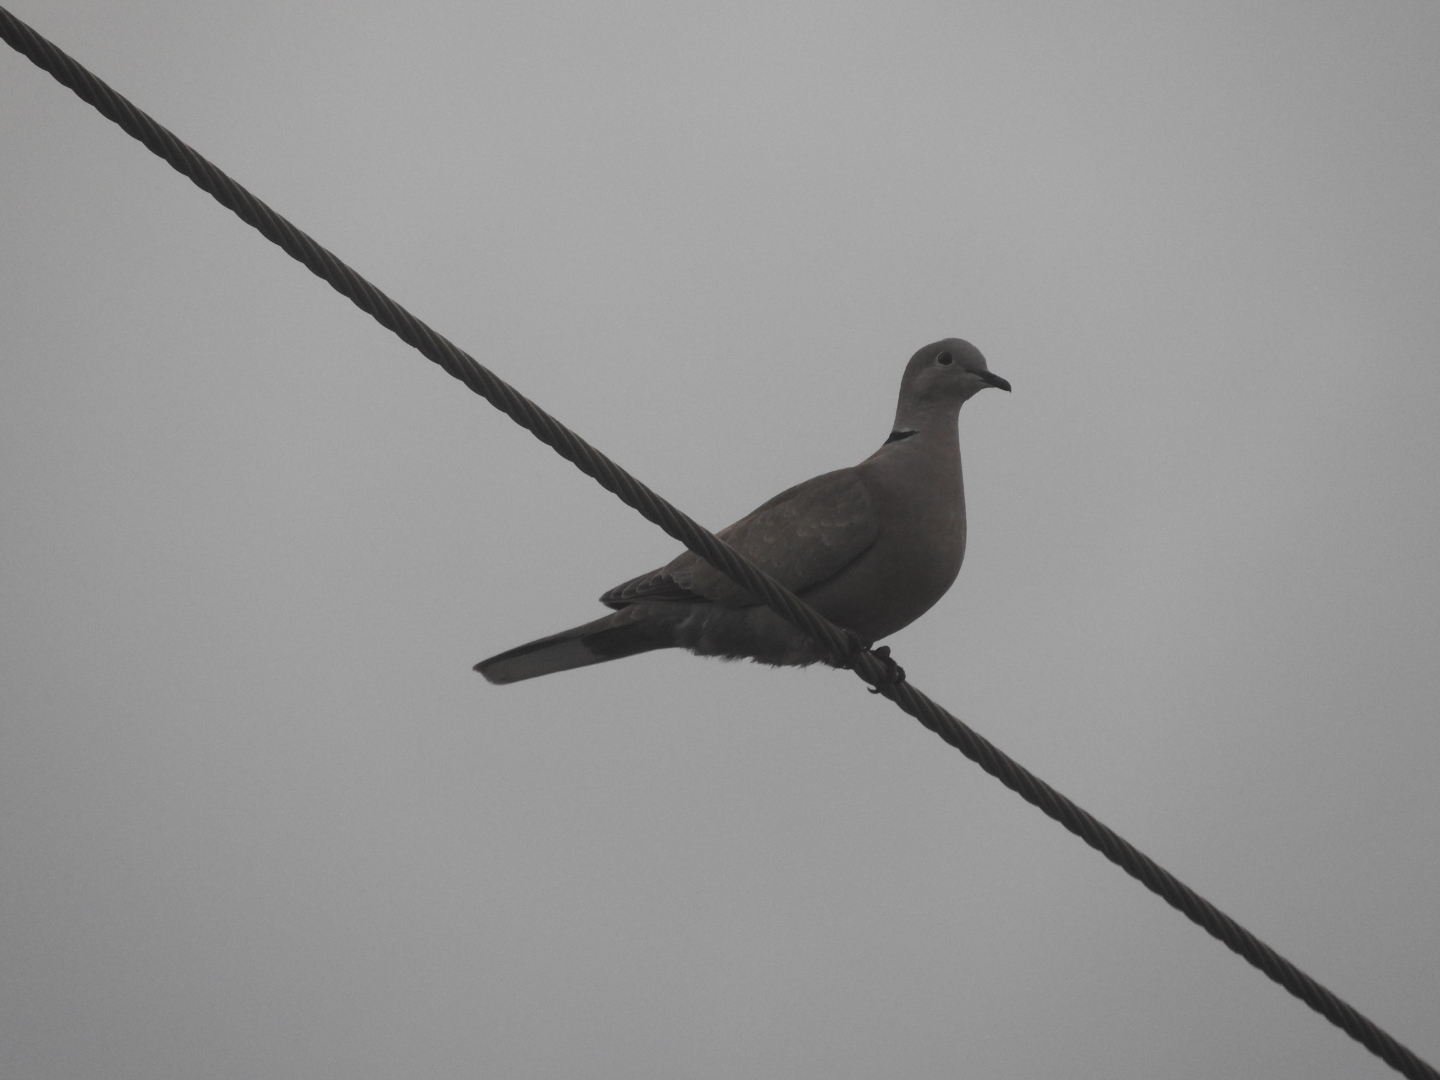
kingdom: Animalia
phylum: Chordata
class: Aves
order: Columbiformes
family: Columbidae
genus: Streptopelia
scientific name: Streptopelia decaocto
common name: Eurasian collared dove
